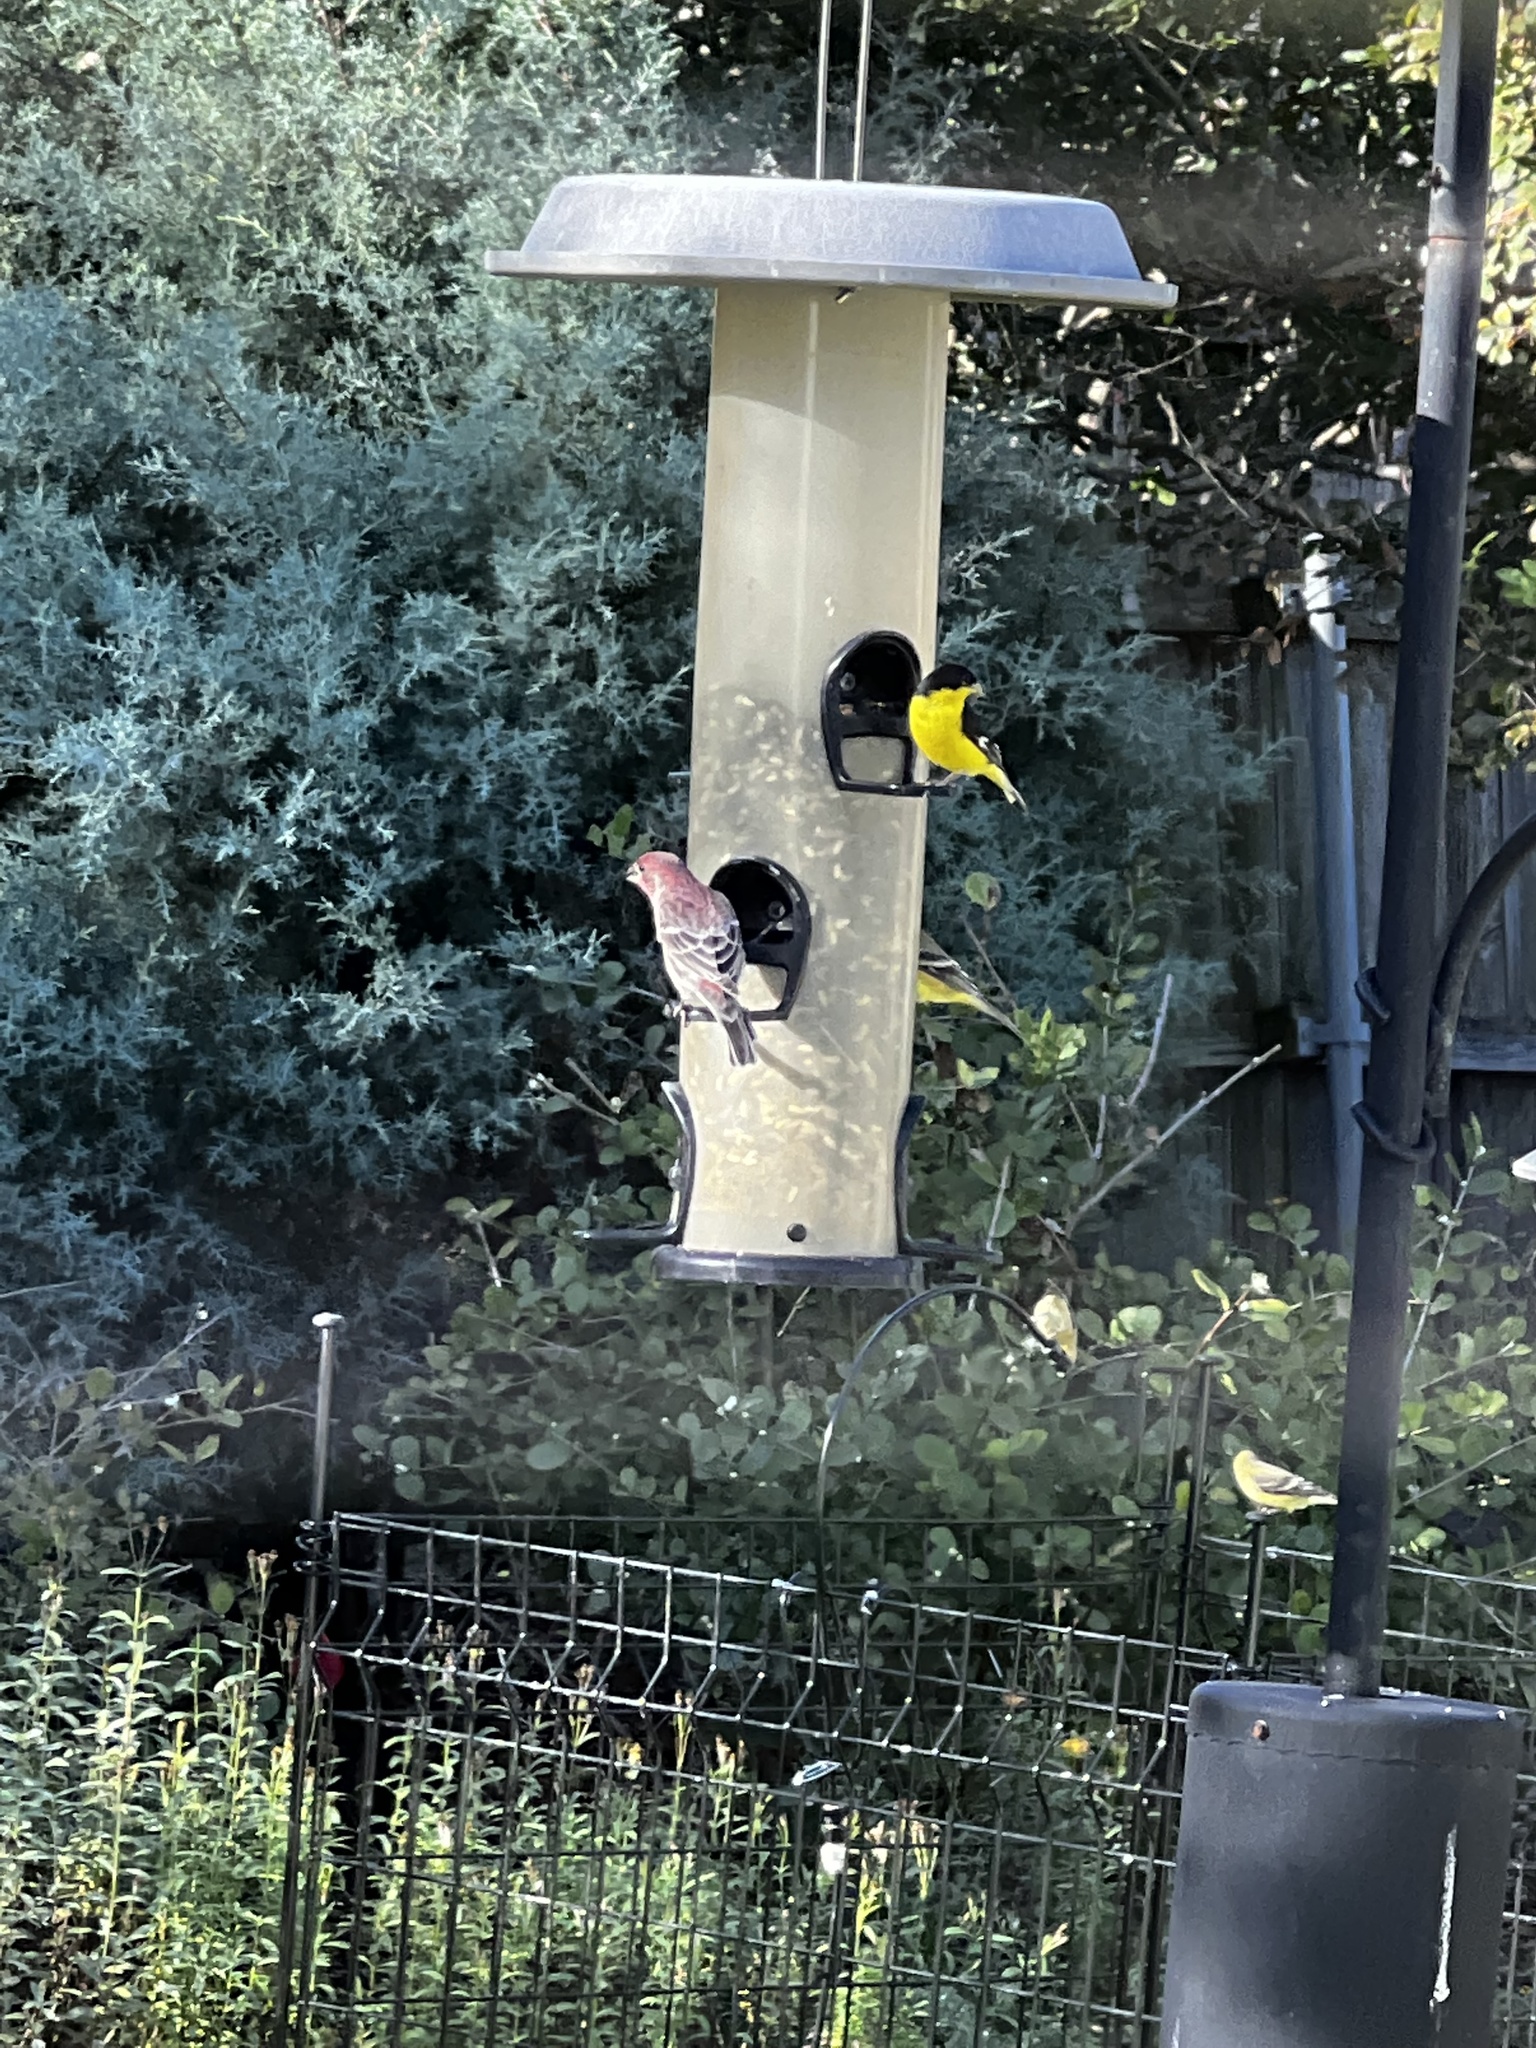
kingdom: Animalia
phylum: Chordata
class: Aves
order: Passeriformes
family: Fringillidae
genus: Haemorhous
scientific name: Haemorhous mexicanus
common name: House finch
